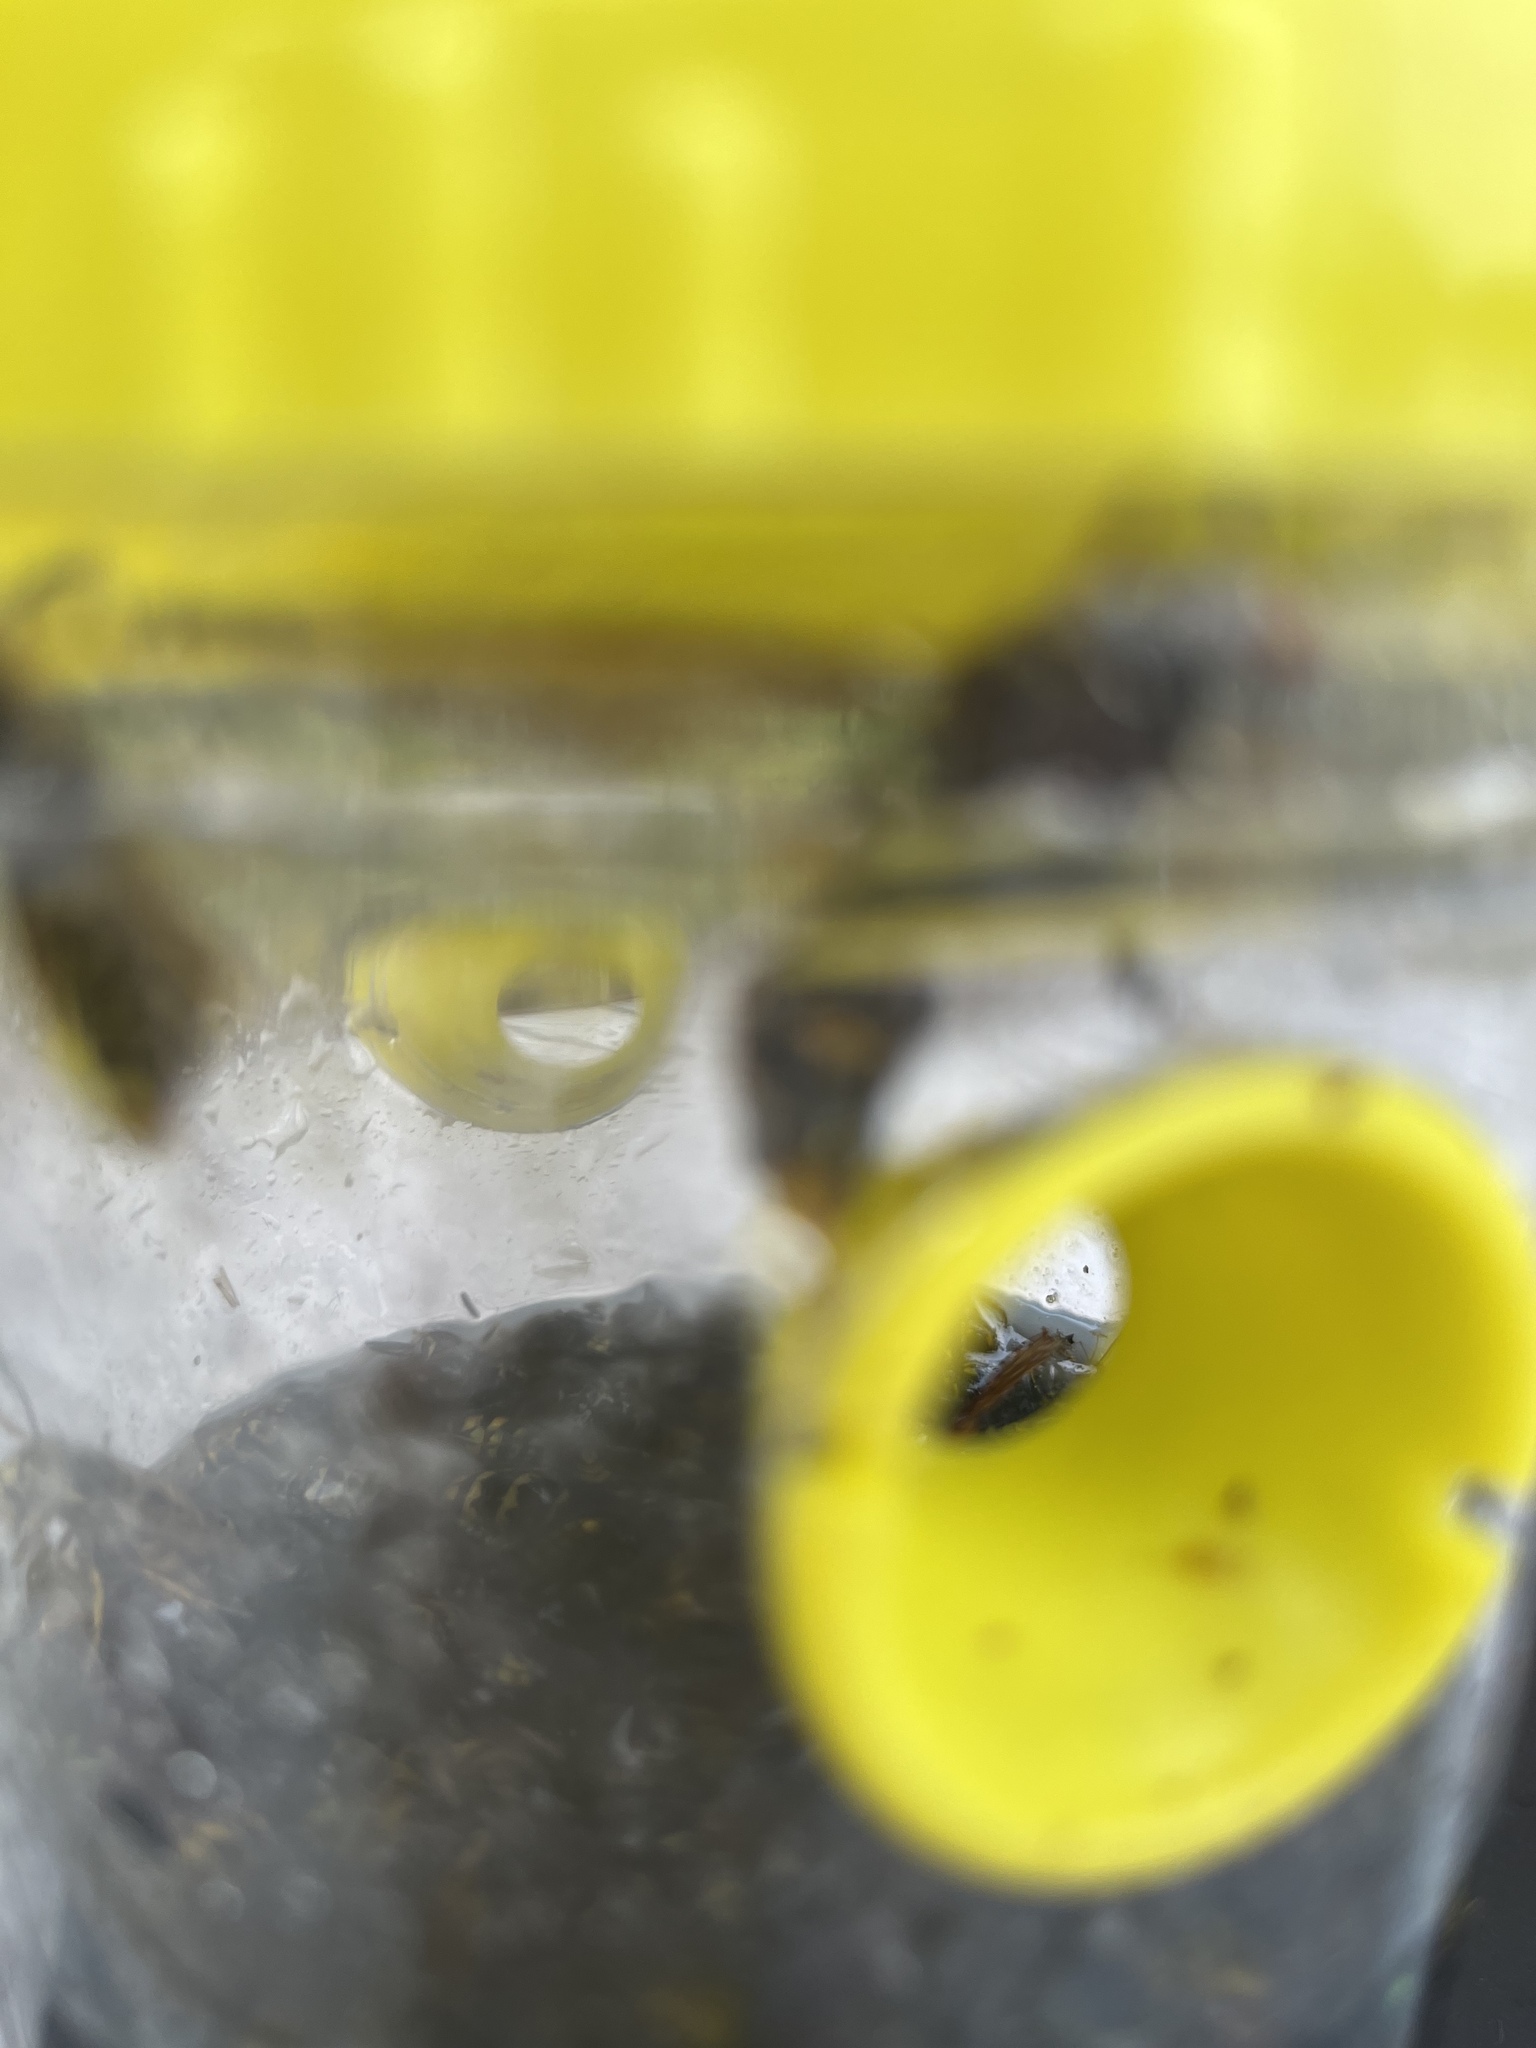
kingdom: Animalia
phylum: Arthropoda
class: Insecta
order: Hymenoptera
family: Vespidae
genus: Vespa
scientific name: Vespa velutina
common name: Asian hornet
